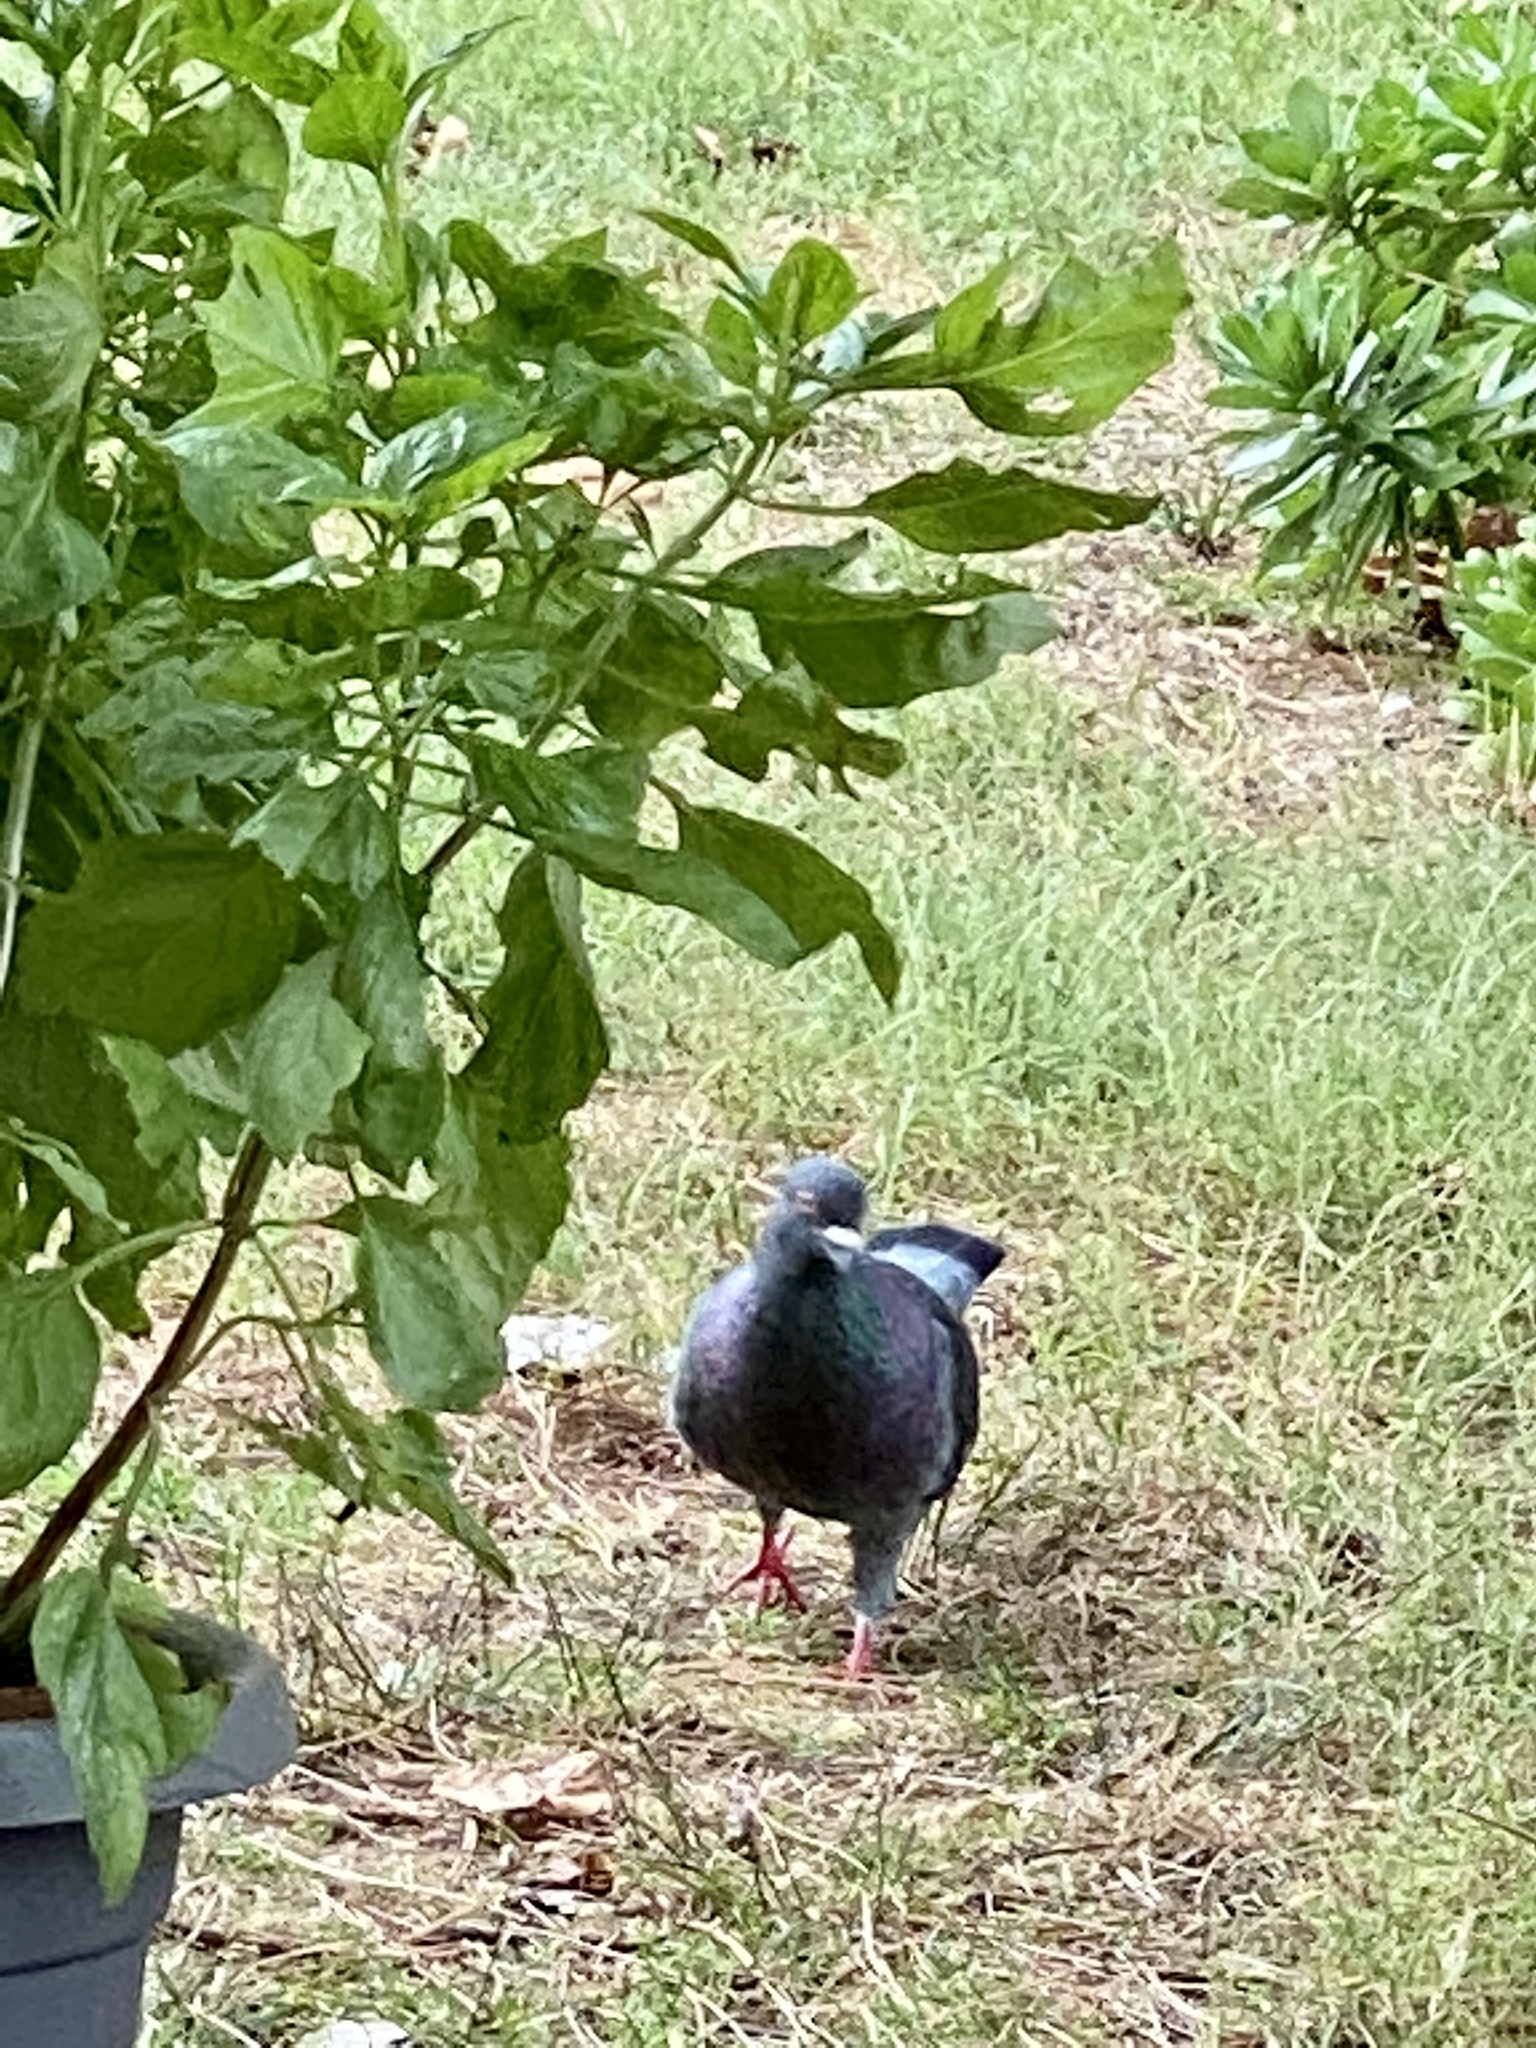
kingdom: Animalia
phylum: Chordata
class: Aves
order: Columbiformes
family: Columbidae
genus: Columba
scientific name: Columba livia
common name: Rock pigeon
